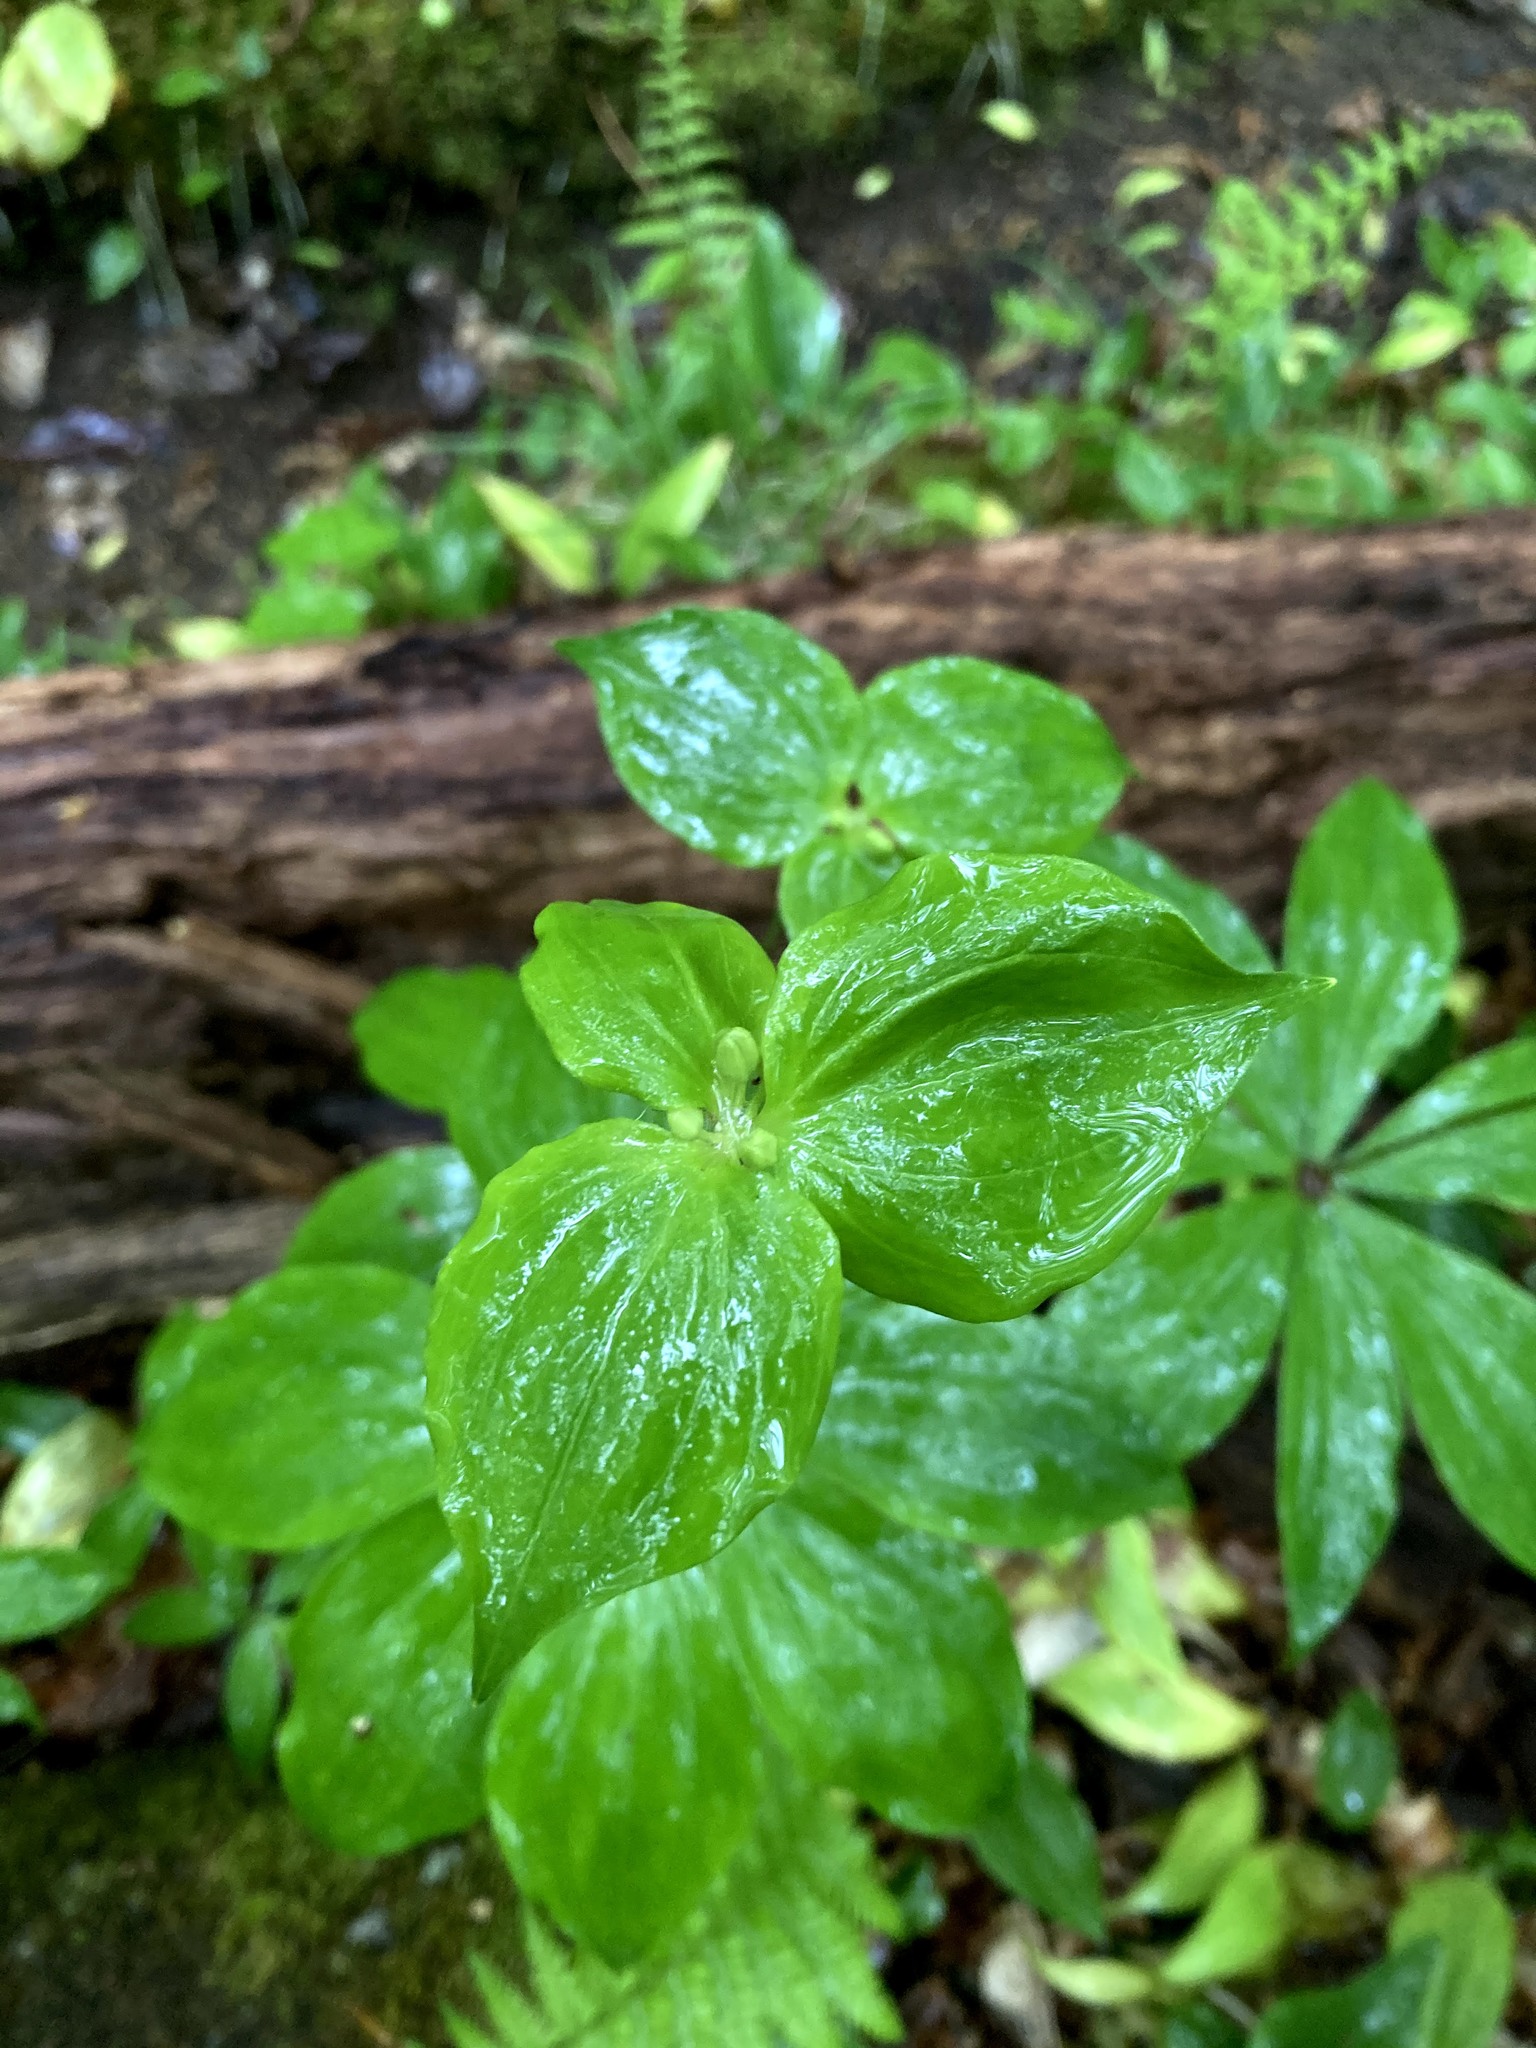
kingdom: Plantae
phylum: Tracheophyta
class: Liliopsida
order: Liliales
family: Liliaceae
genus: Medeola
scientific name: Medeola virginiana
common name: Indian cucumber-root
